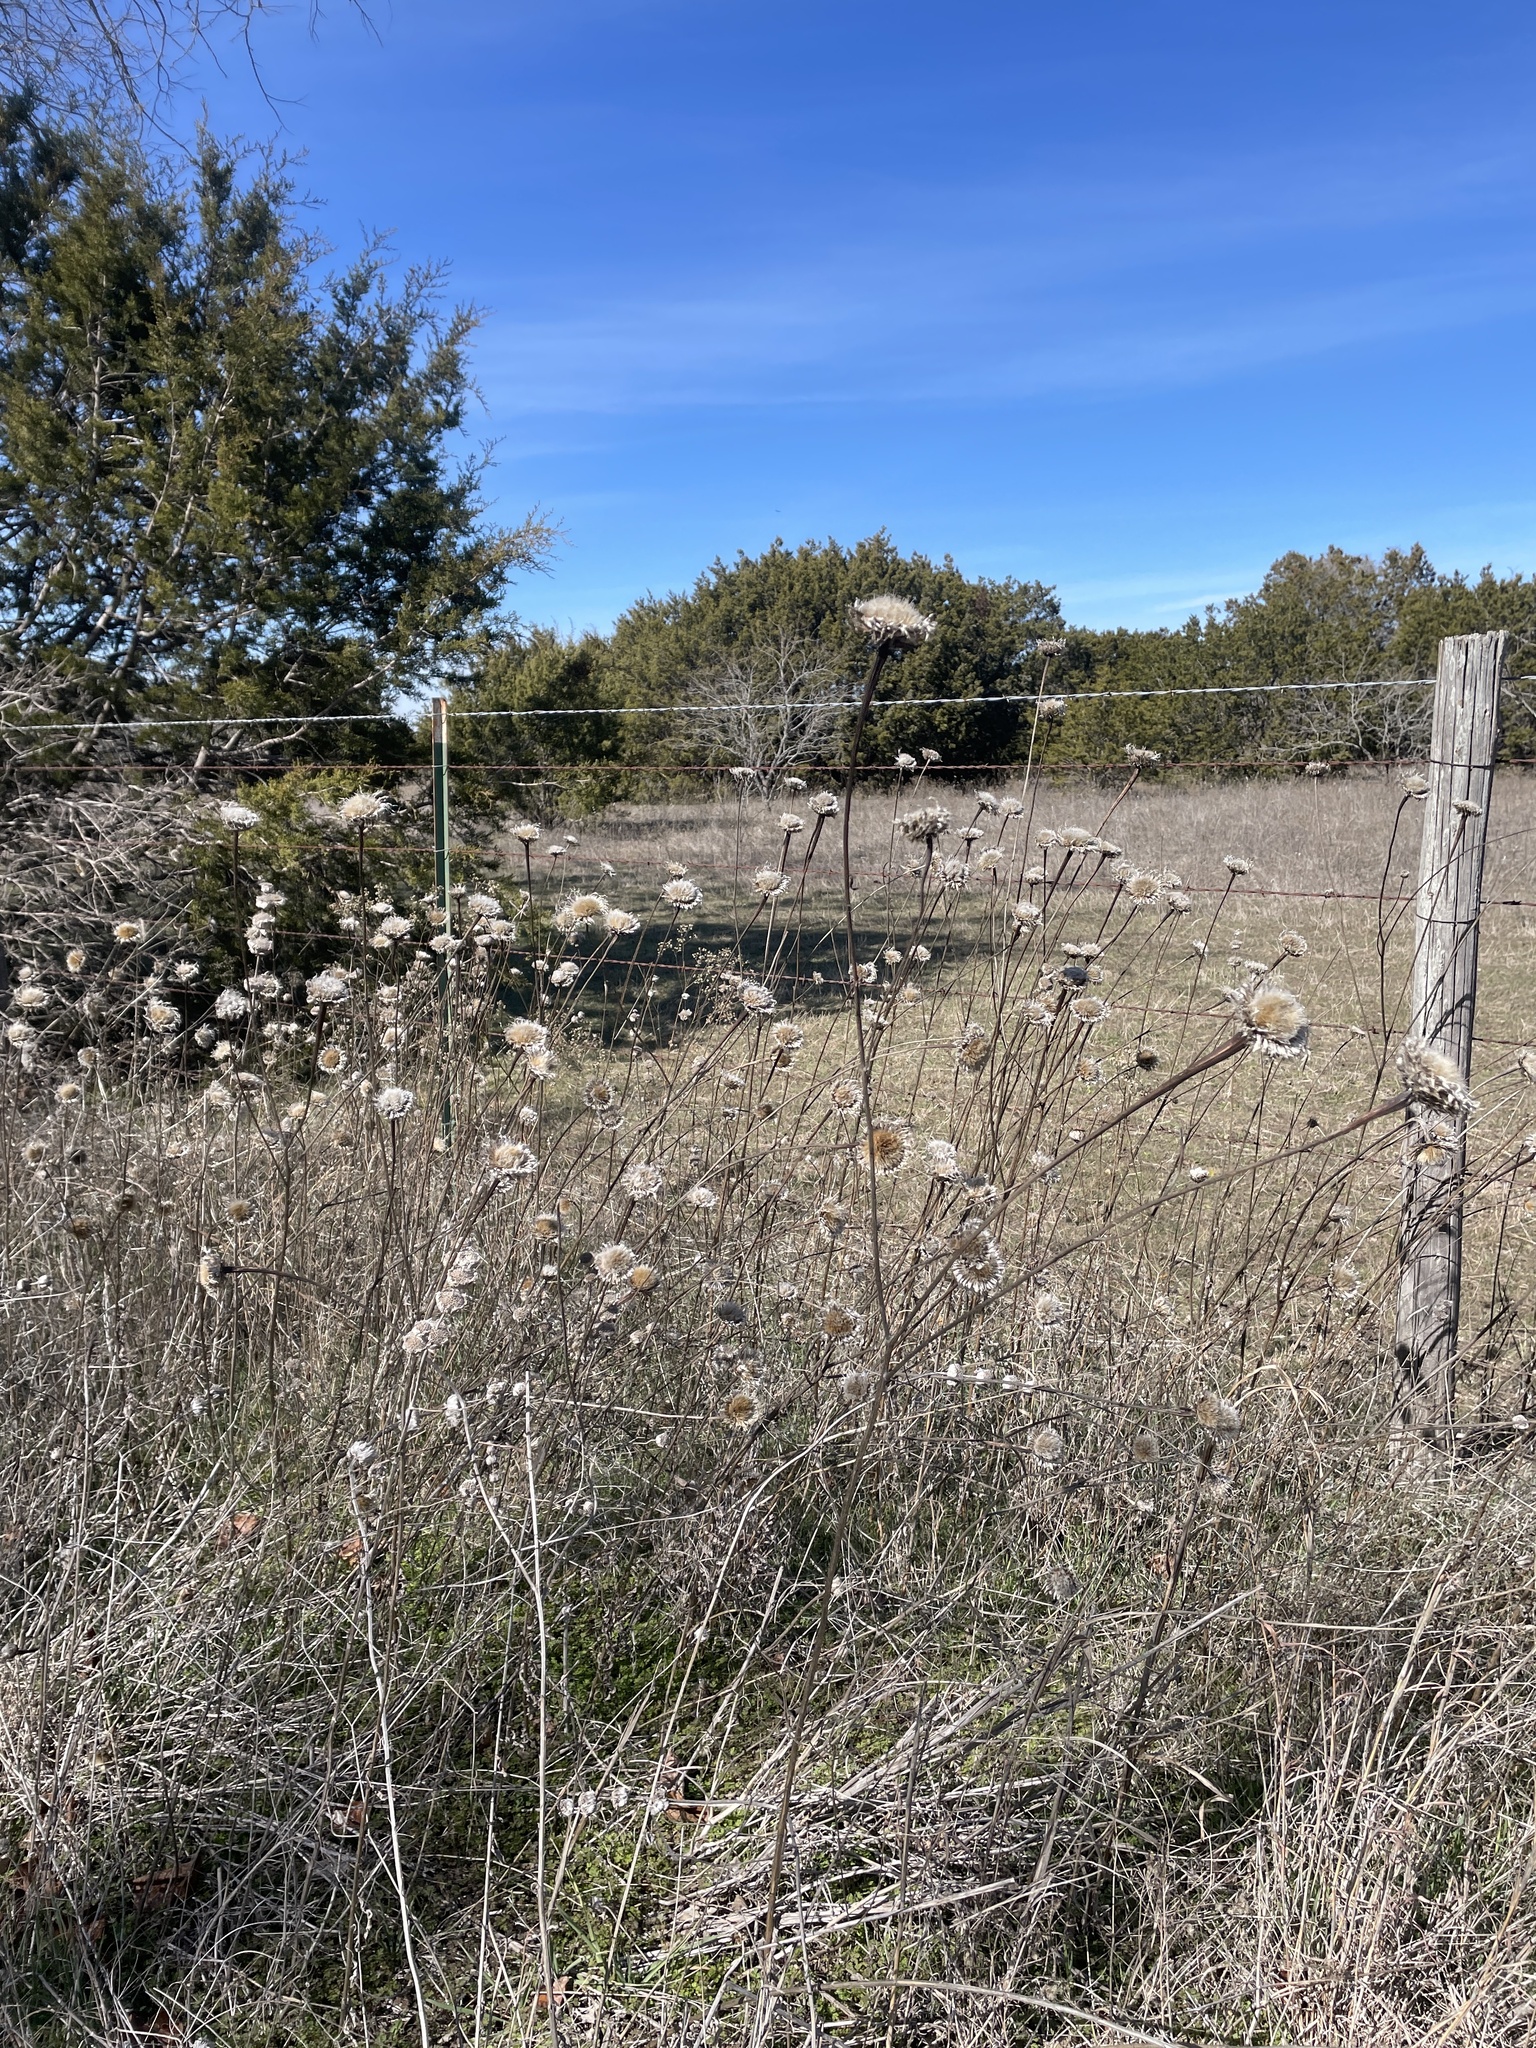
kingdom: Plantae
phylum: Tracheophyta
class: Magnoliopsida
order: Asterales
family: Asteraceae
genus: Plectocephalus
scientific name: Plectocephalus americanus
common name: American basket-flower
